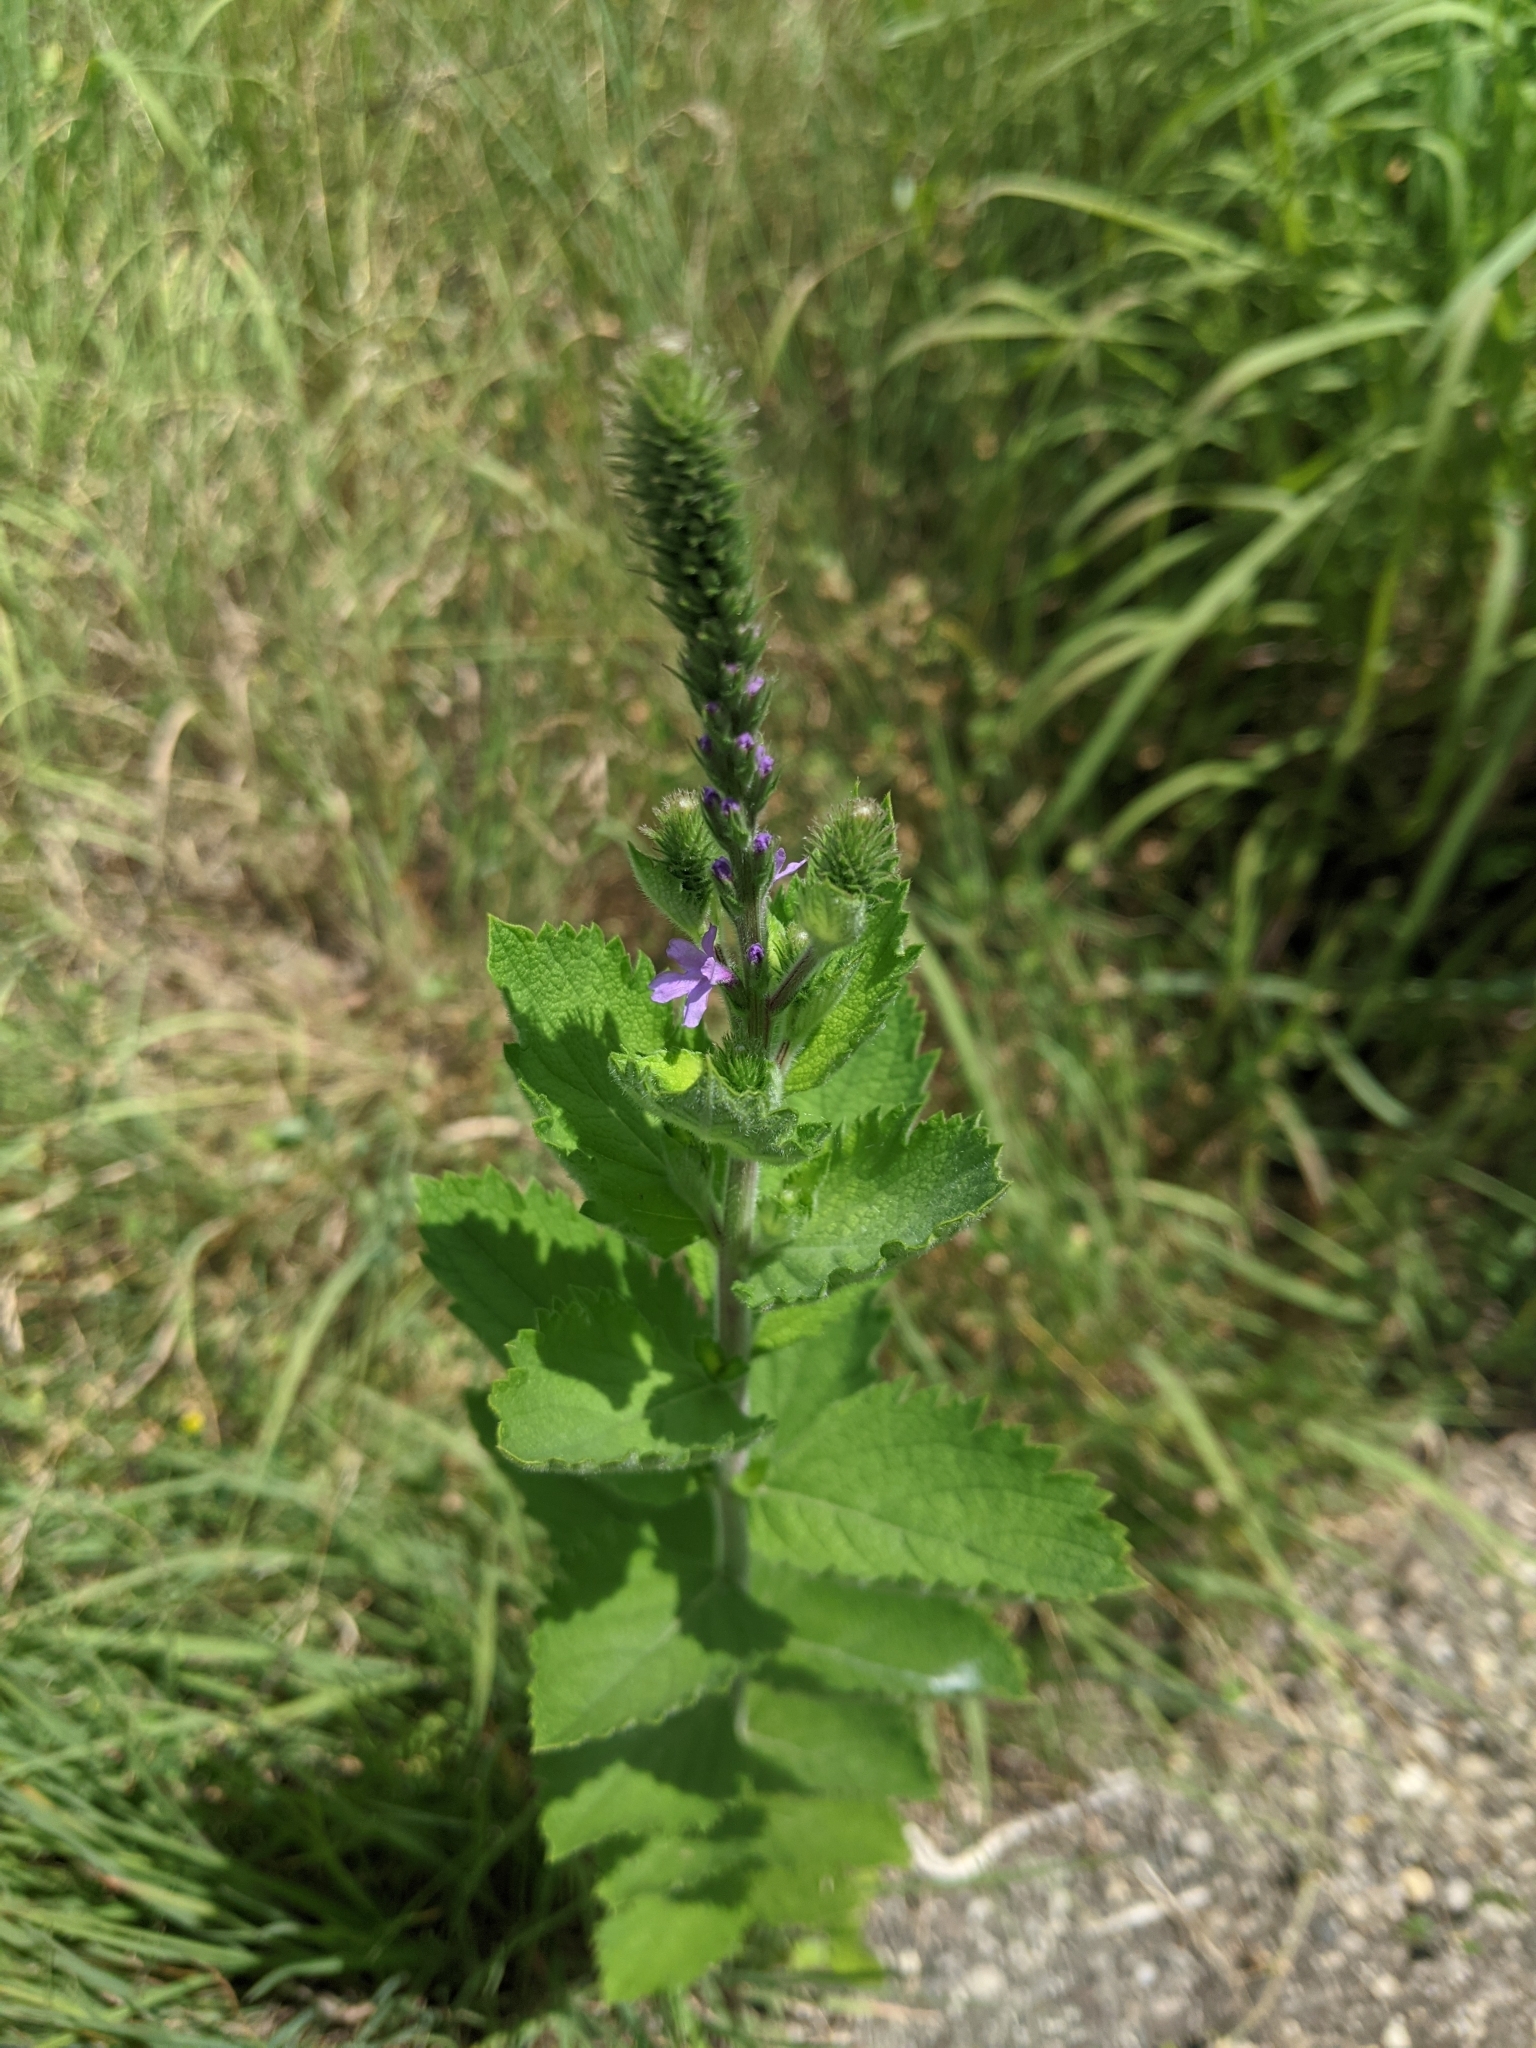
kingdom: Plantae
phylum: Tracheophyta
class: Magnoliopsida
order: Lamiales
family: Verbenaceae
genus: Verbena
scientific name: Verbena stricta
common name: Hoary vervain
